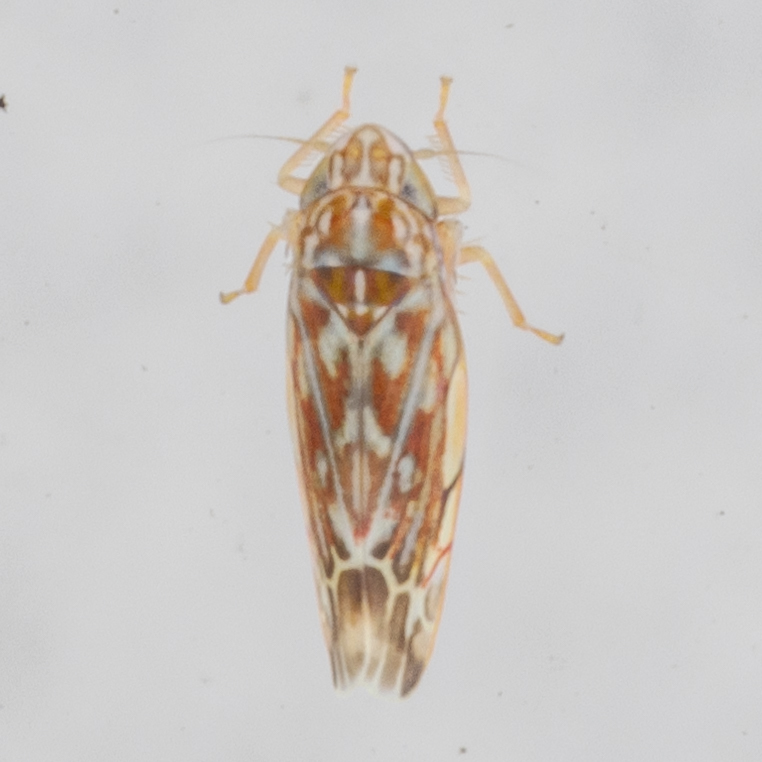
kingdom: Animalia
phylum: Arthropoda
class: Insecta
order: Hemiptera
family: Cicadellidae
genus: Erasmoneura
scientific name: Erasmoneura vulnerata
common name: The wounded leafhopper
